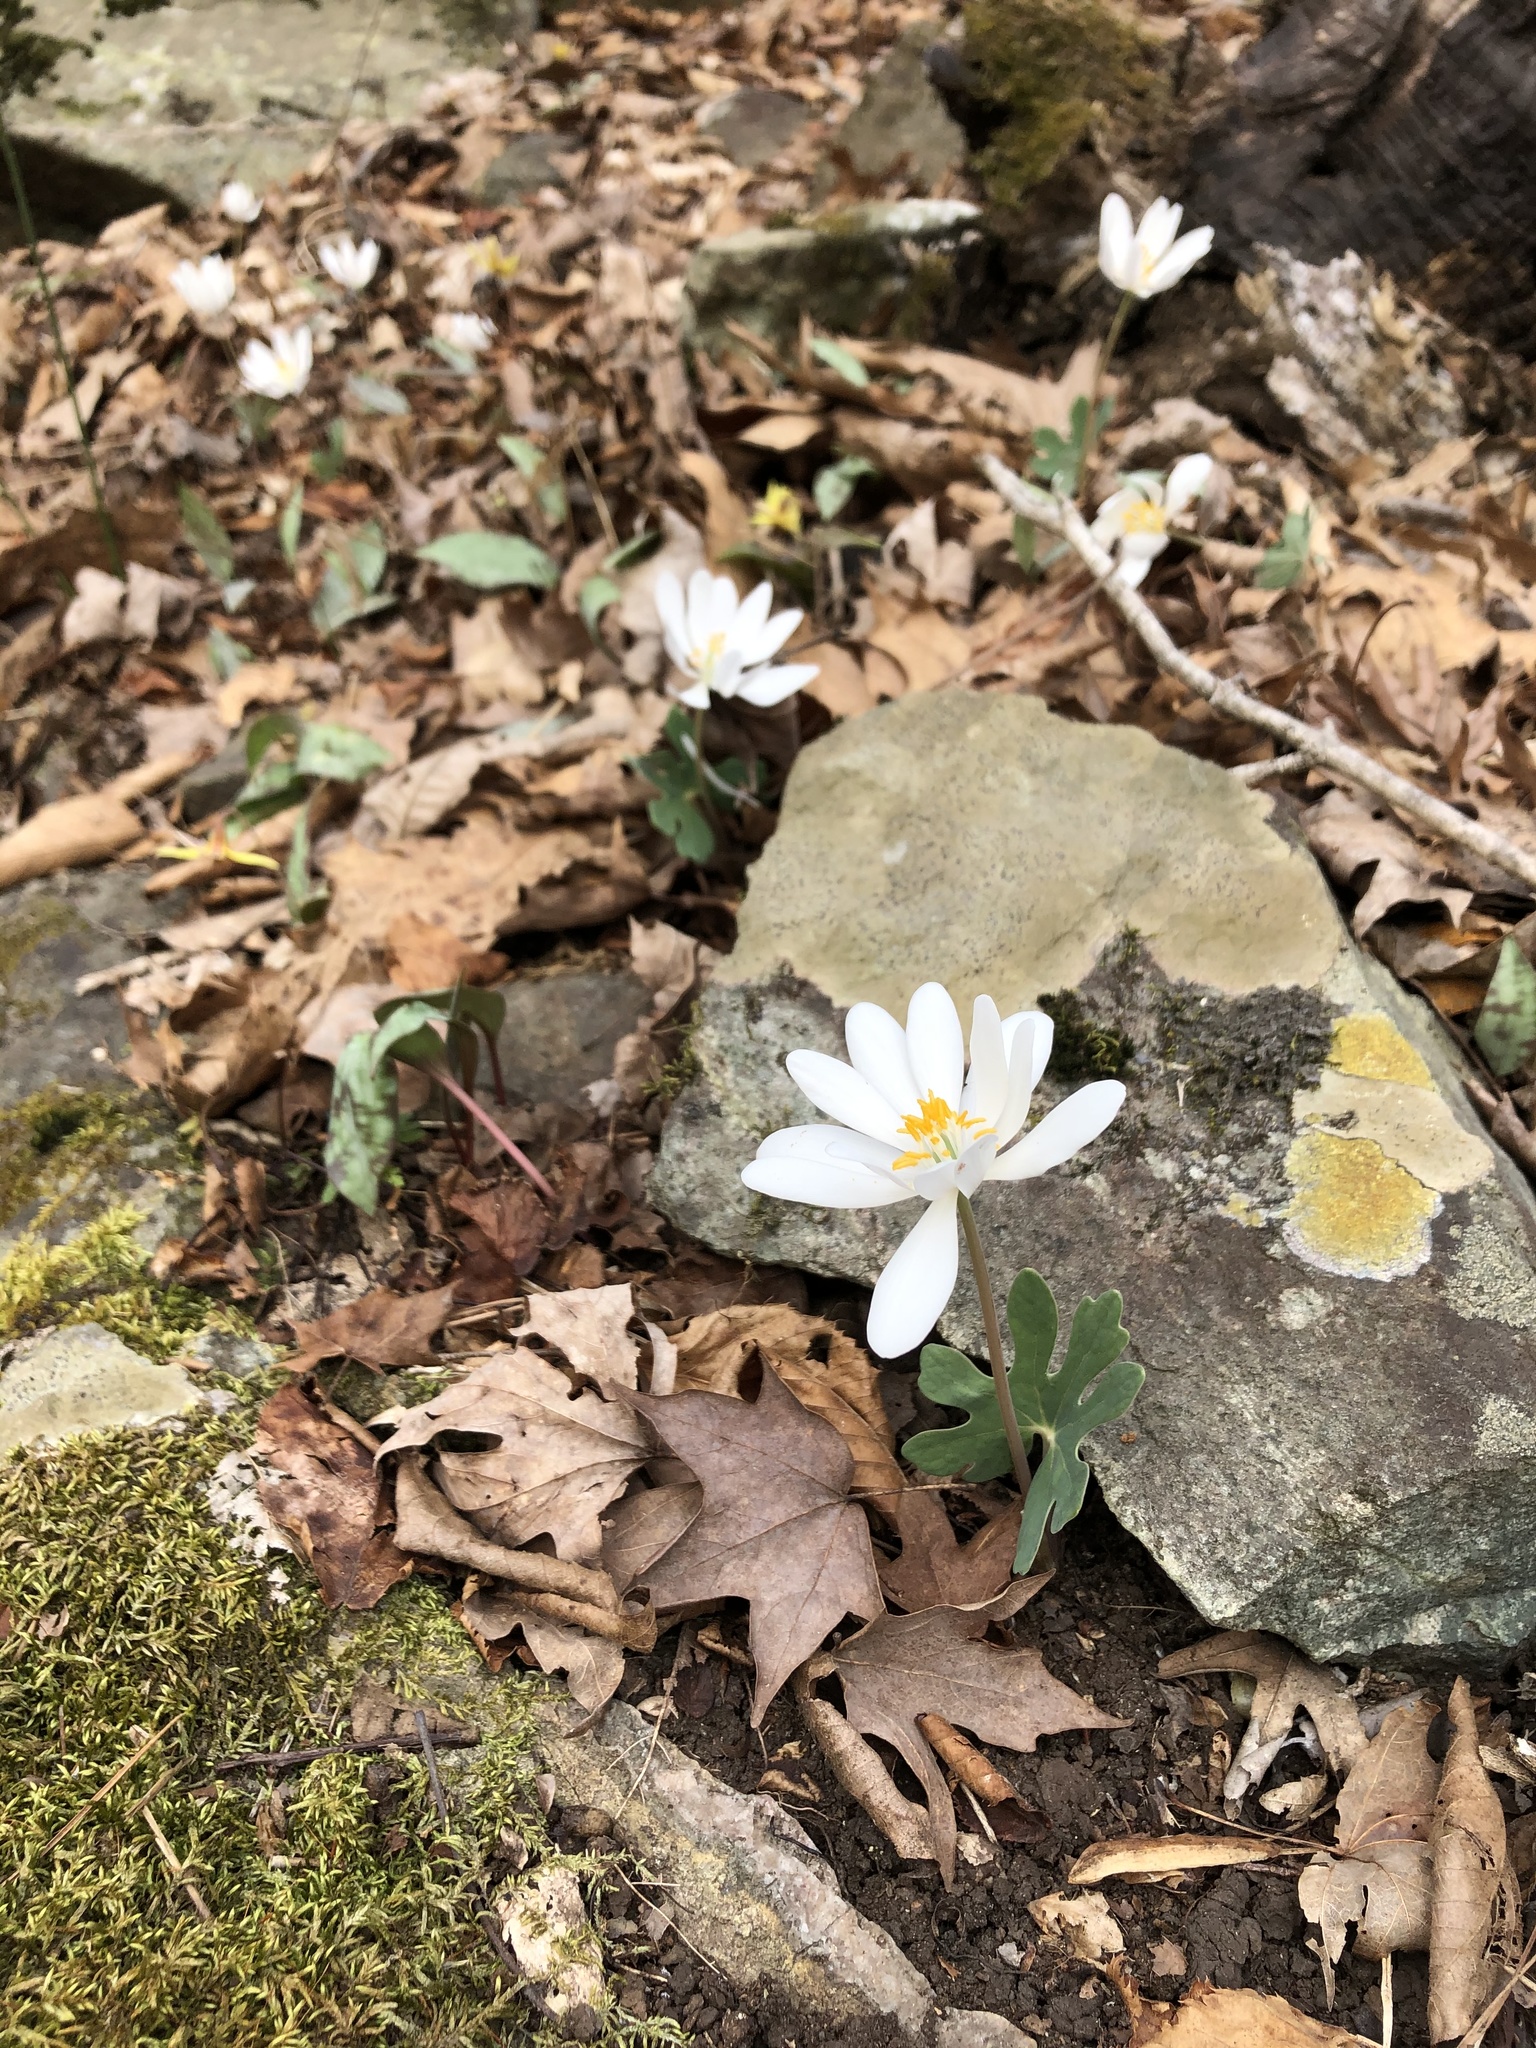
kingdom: Plantae
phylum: Tracheophyta
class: Magnoliopsida
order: Ranunculales
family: Papaveraceae
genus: Sanguinaria
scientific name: Sanguinaria canadensis
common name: Bloodroot
